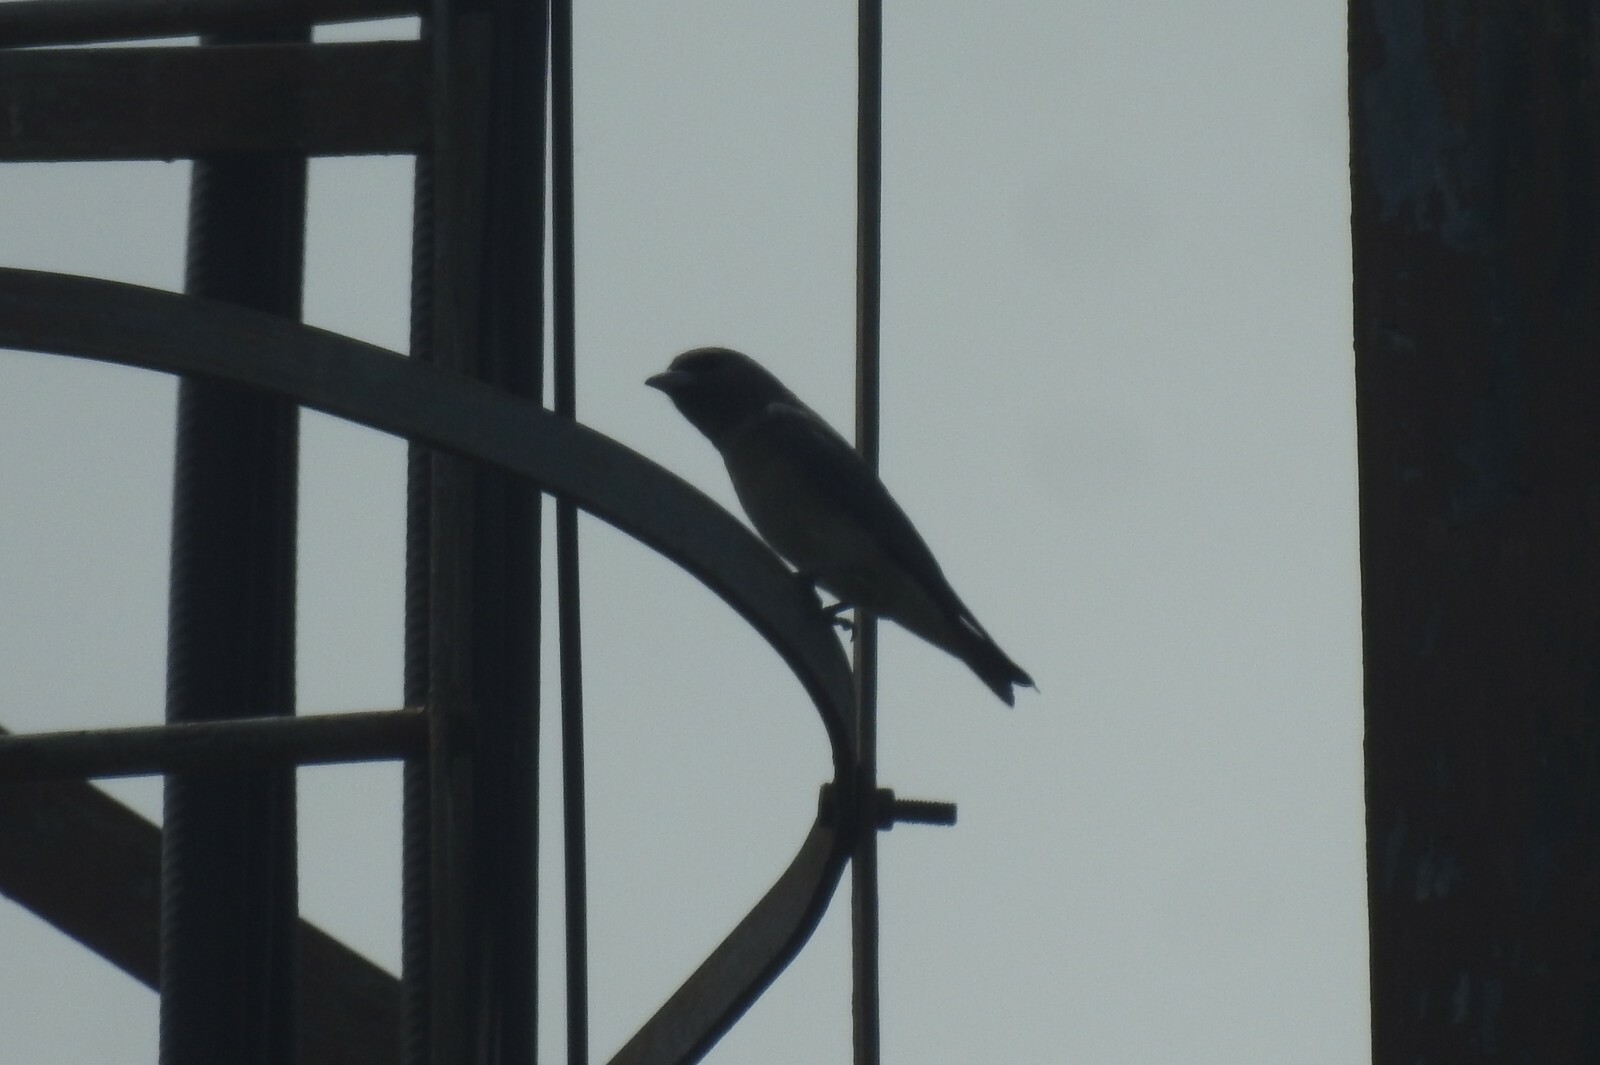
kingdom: Animalia
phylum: Chordata
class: Aves
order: Passeriformes
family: Artamidae
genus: Artamus
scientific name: Artamus fuscus
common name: Ashy woodswallow
